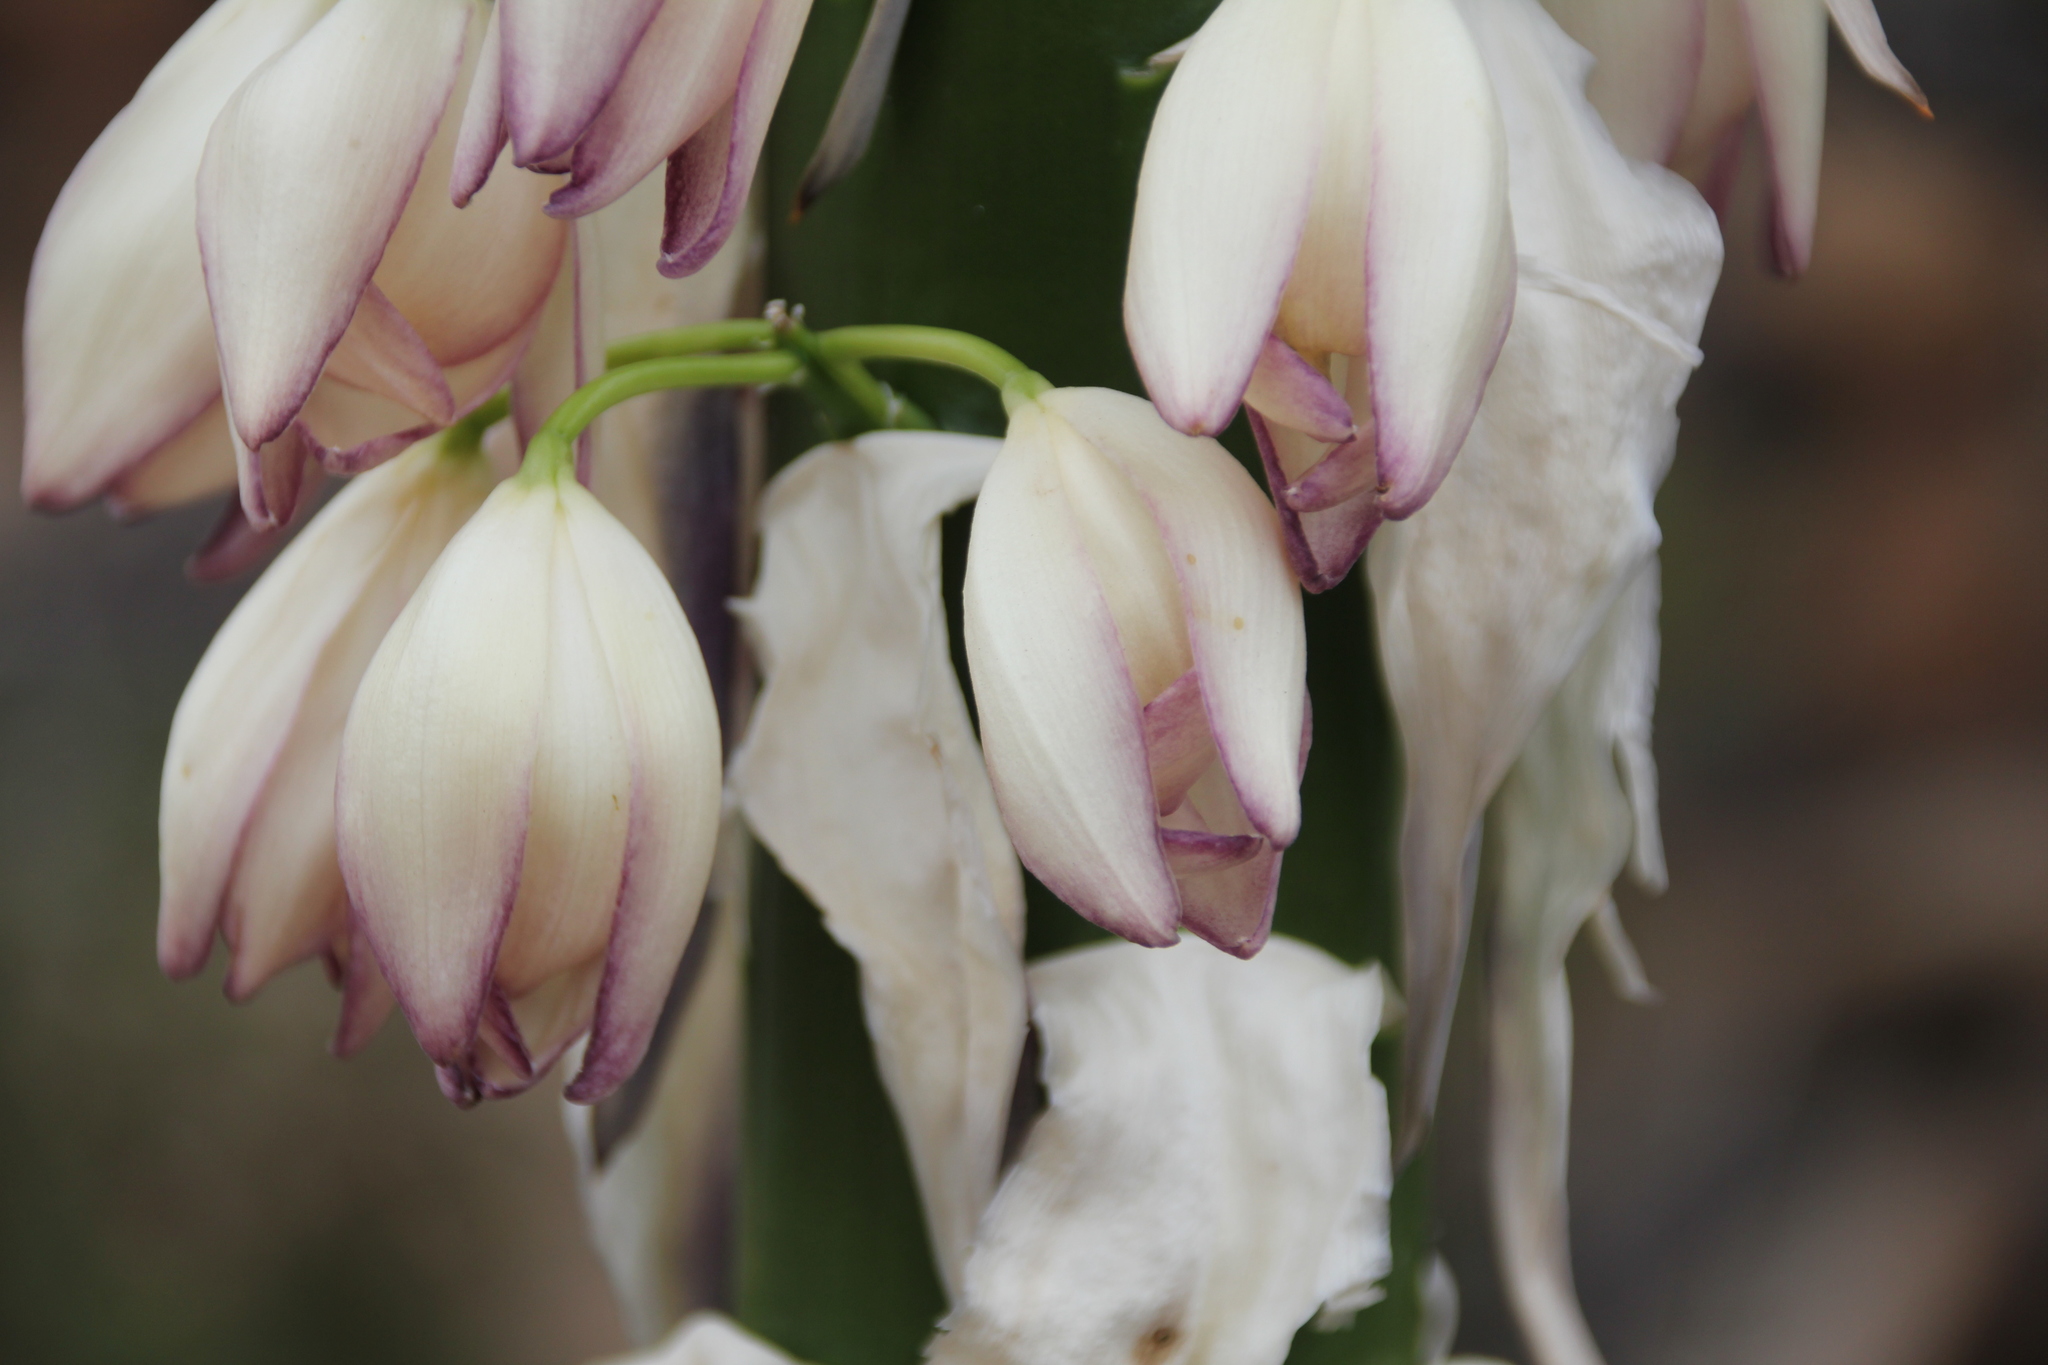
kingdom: Plantae
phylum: Tracheophyta
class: Liliopsida
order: Asparagales
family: Asparagaceae
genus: Hesperoyucca
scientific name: Hesperoyucca whipplei
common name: Our lord's-candle
